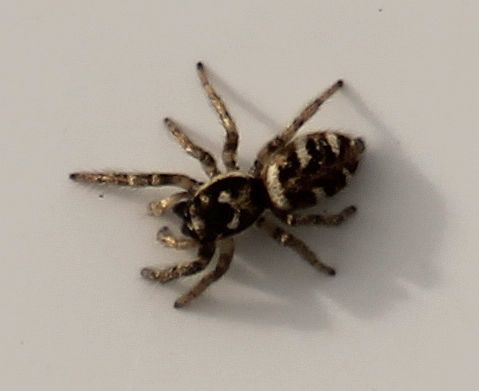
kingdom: Animalia
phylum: Arthropoda
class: Arachnida
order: Araneae
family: Salticidae
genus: Salticus
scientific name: Salticus scenicus
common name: Zebra jumper
